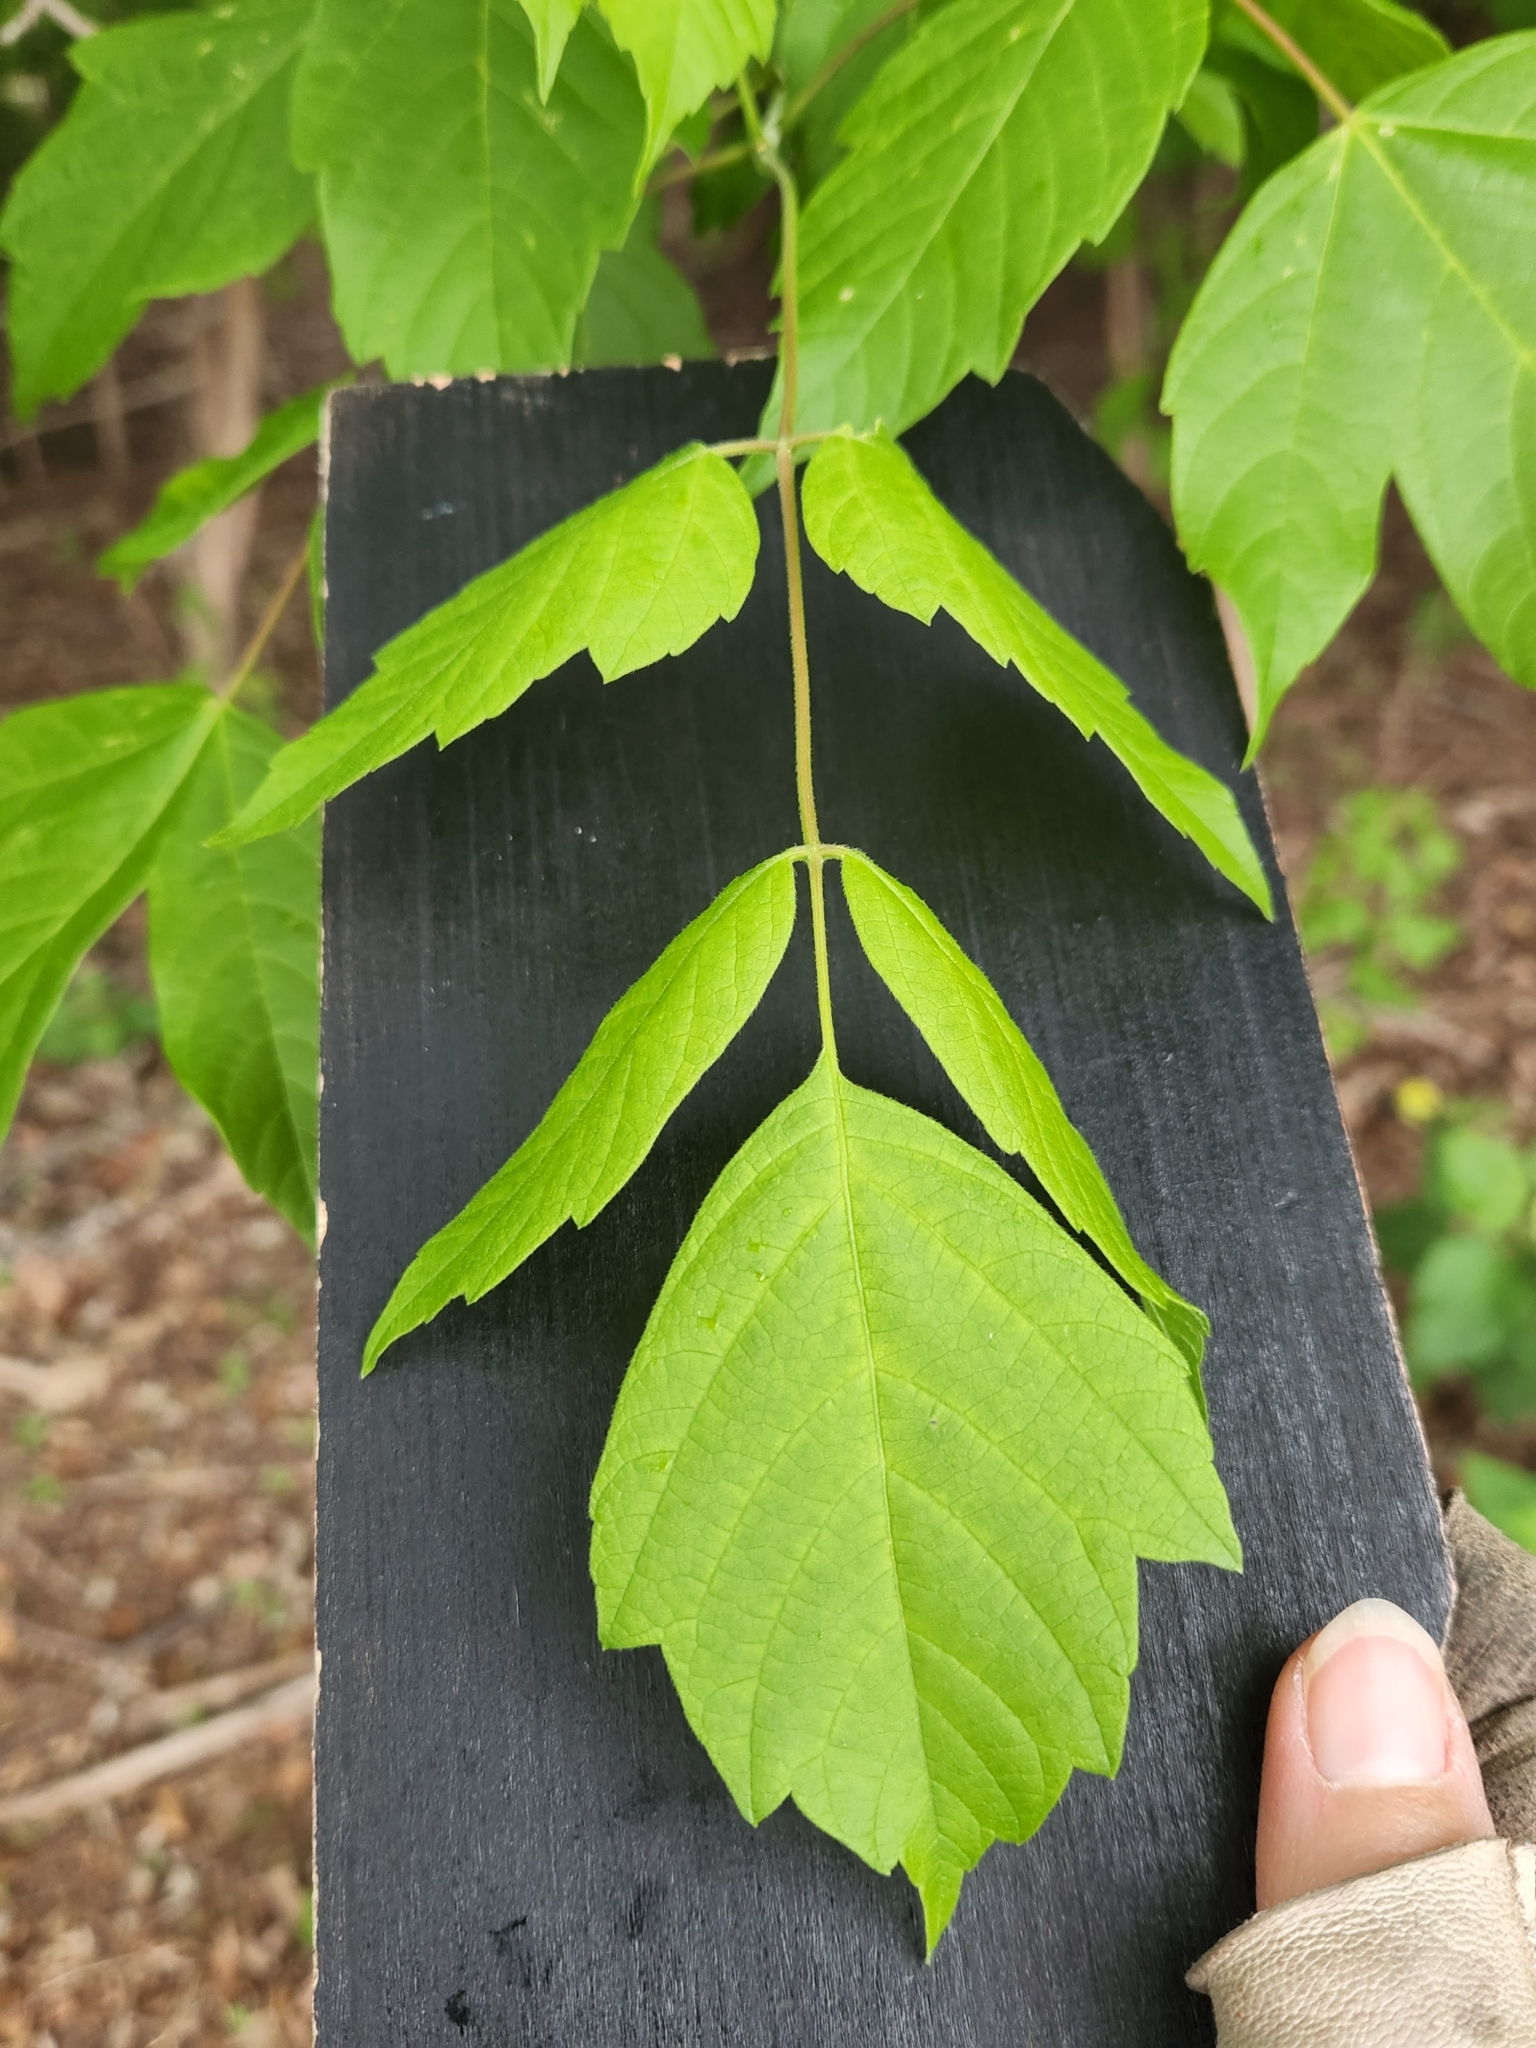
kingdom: Plantae
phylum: Tracheophyta
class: Magnoliopsida
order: Sapindales
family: Sapindaceae
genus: Acer
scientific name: Acer negundo
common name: Ashleaf maple
